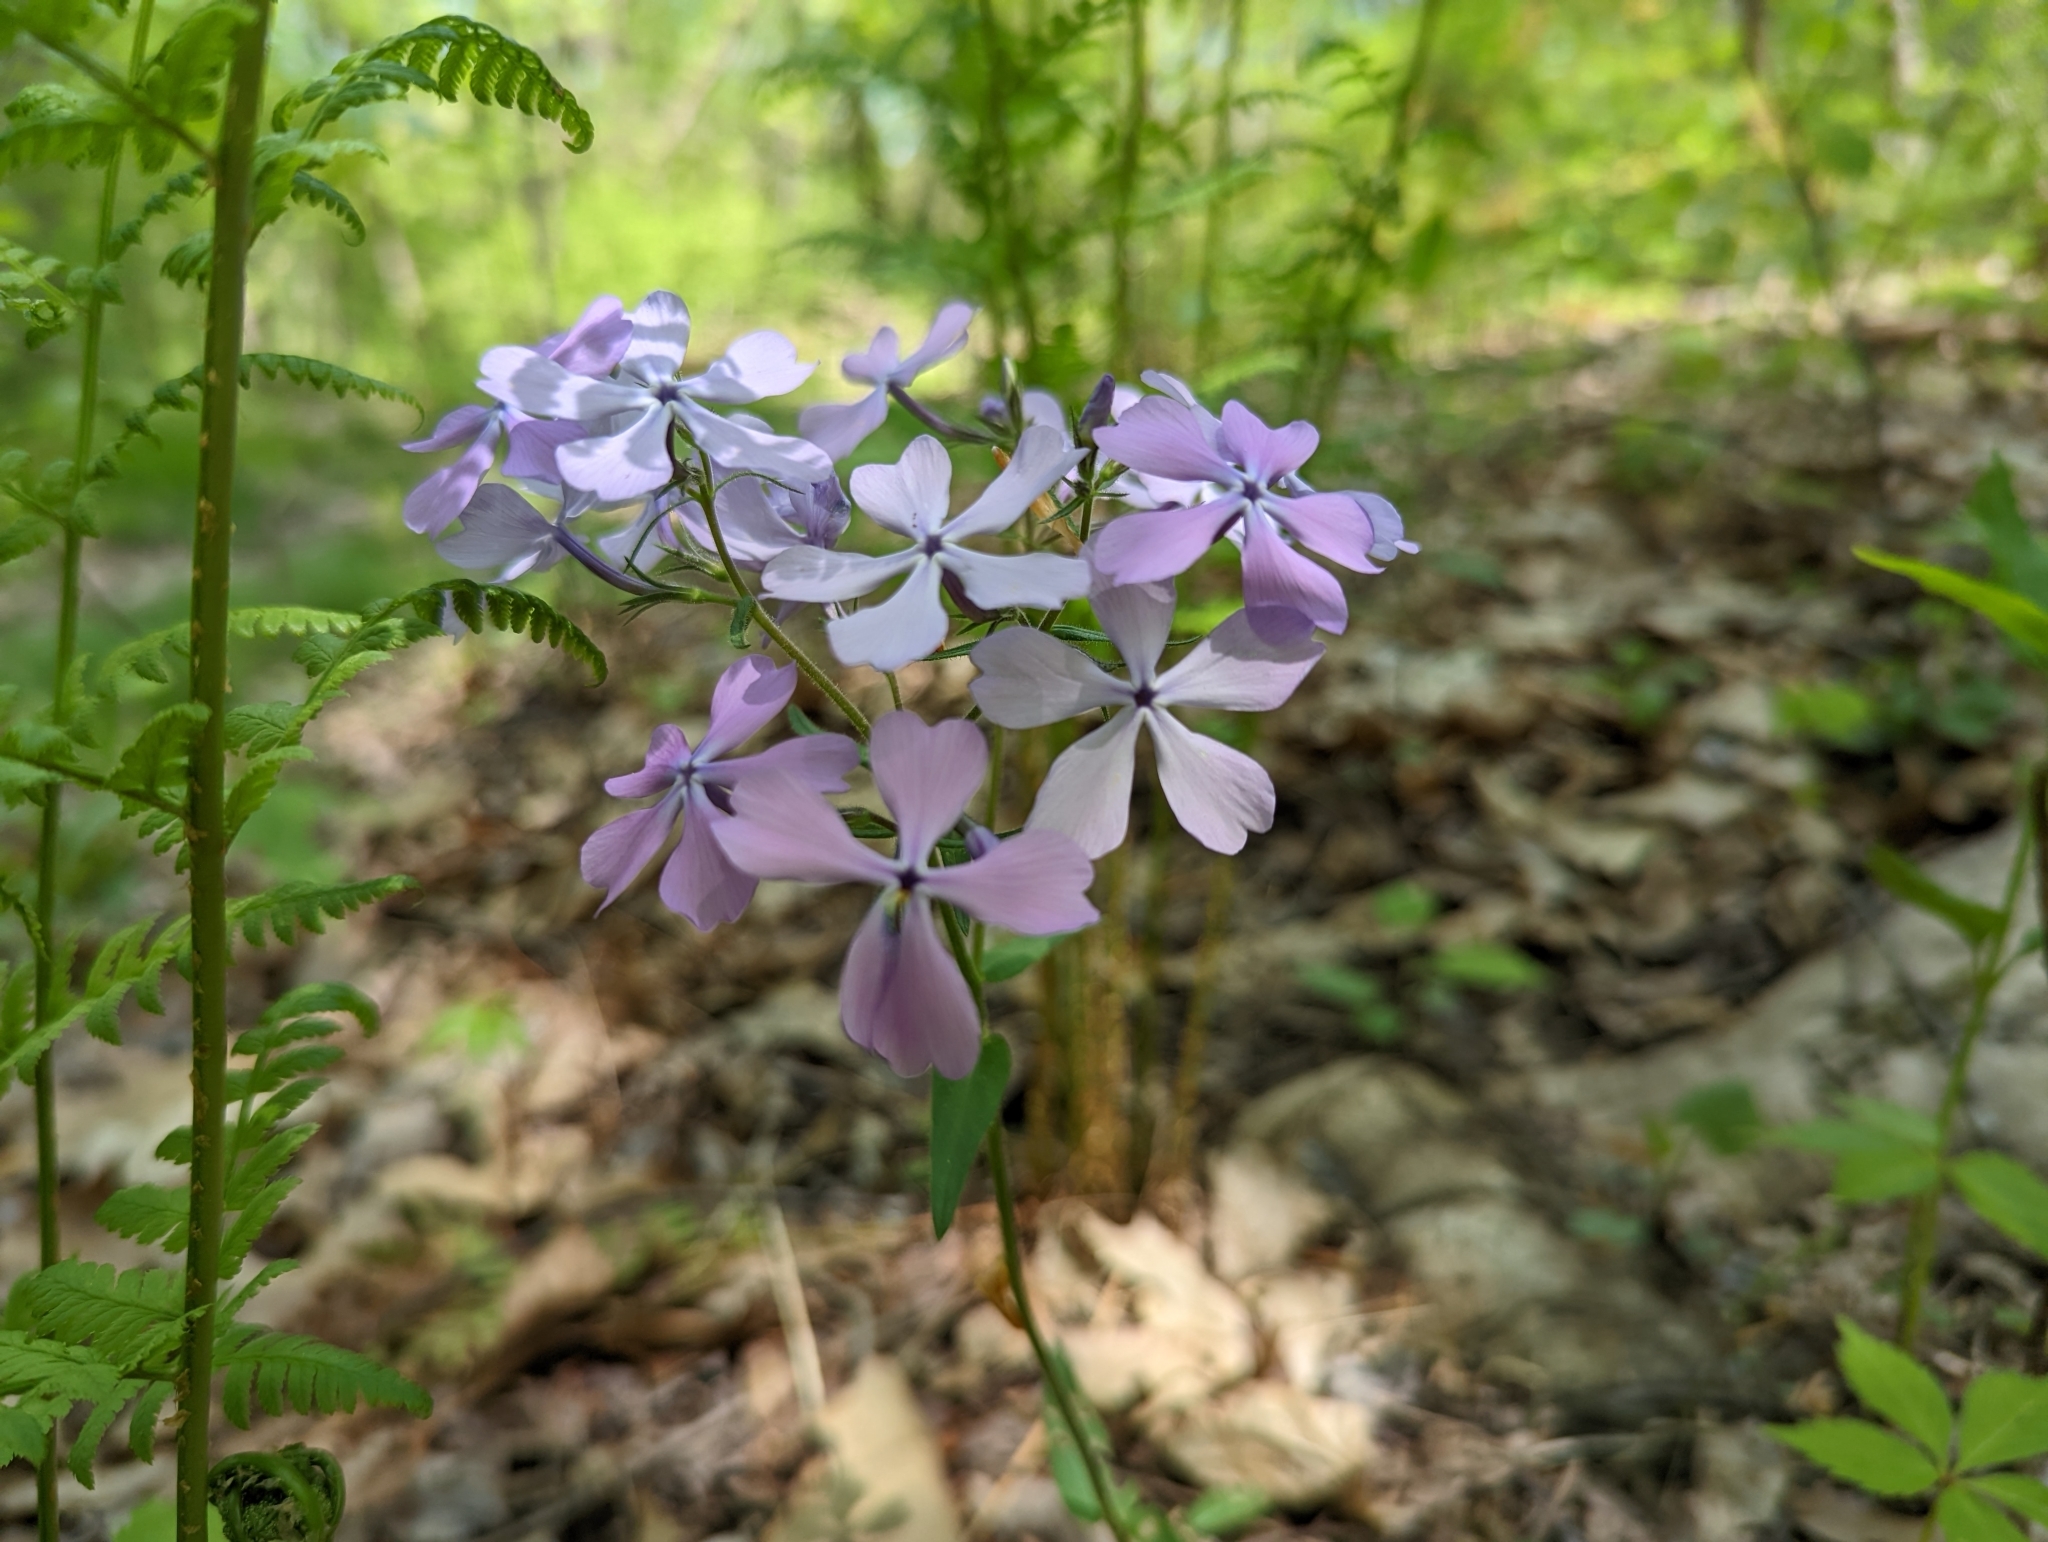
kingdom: Plantae
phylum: Tracheophyta
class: Magnoliopsida
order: Ericales
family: Polemoniaceae
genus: Phlox
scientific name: Phlox divaricata
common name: Blue phlox
